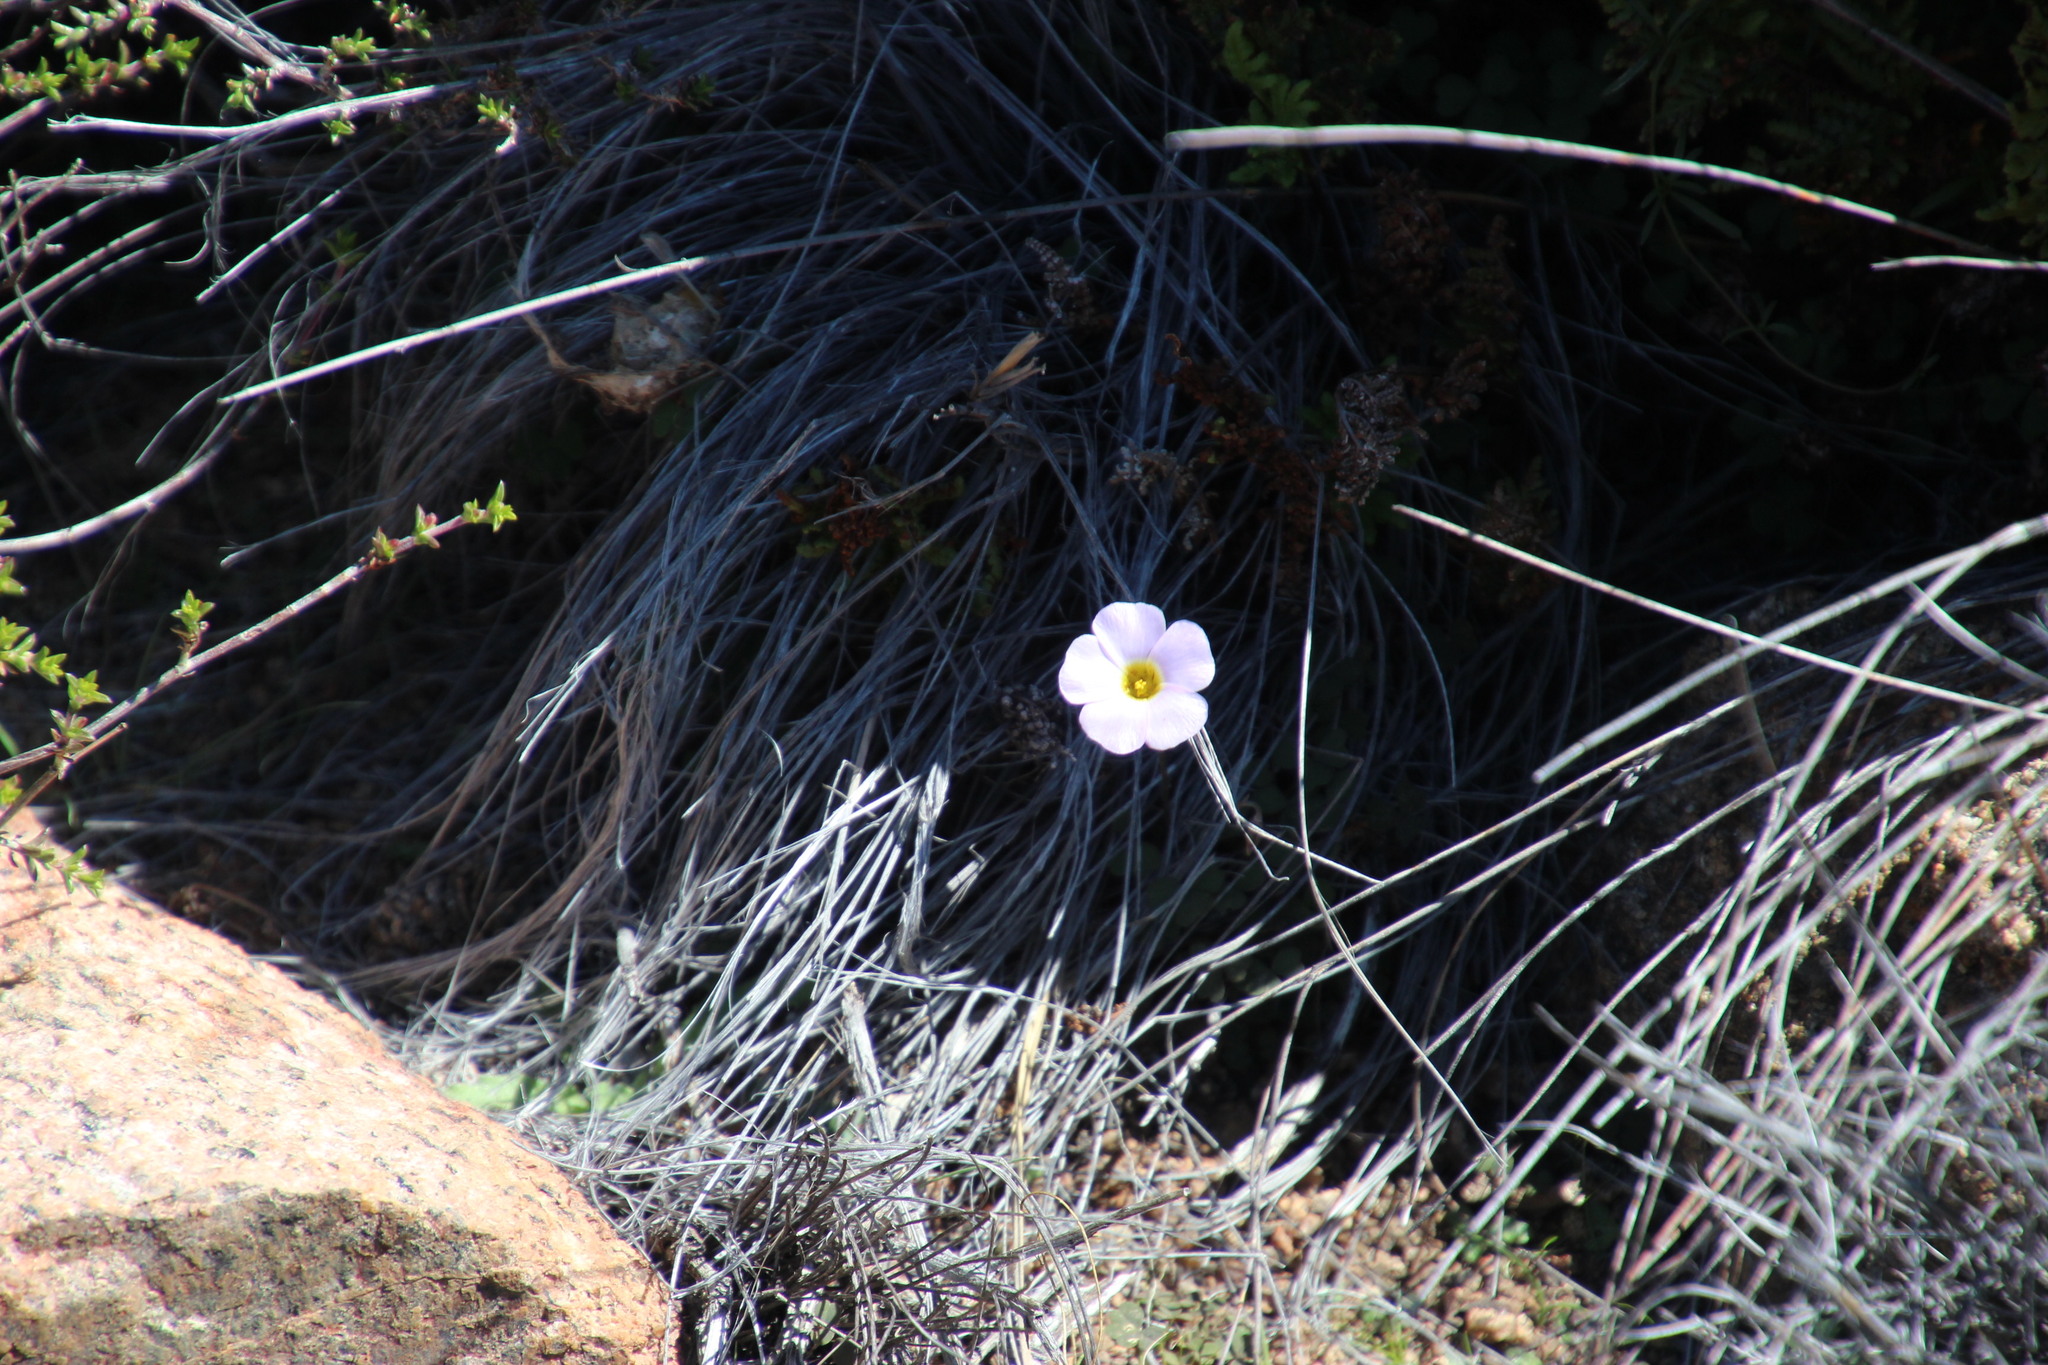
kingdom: Plantae
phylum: Tracheophyta
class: Magnoliopsida
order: Oxalidales
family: Oxalidaceae
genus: Oxalis
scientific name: Oxalis obtusa
